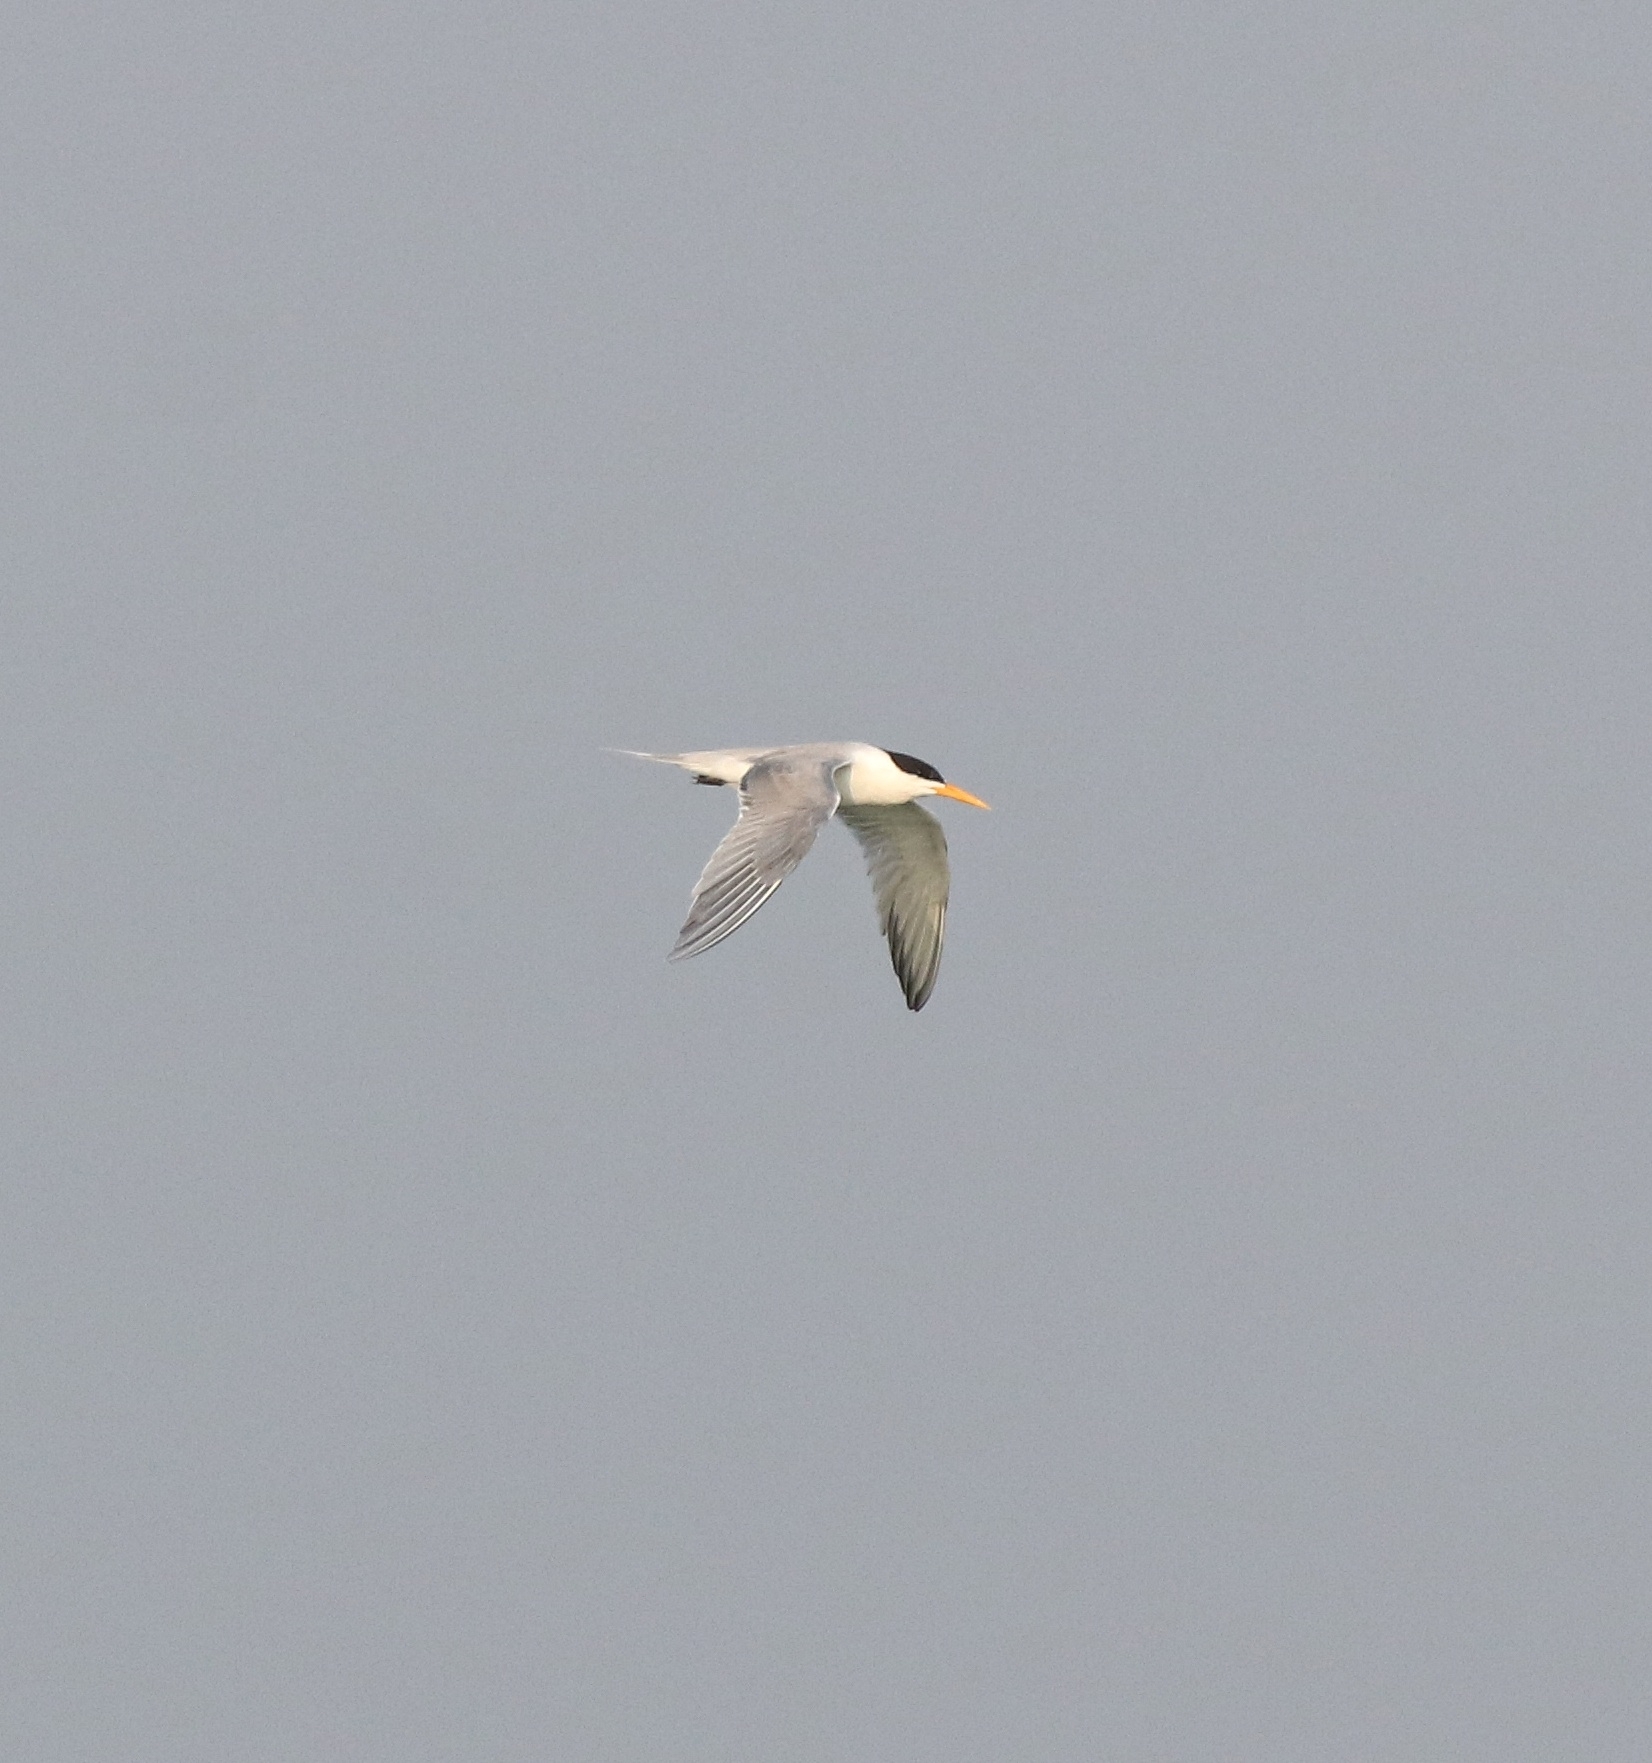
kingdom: Animalia
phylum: Chordata
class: Aves
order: Charadriiformes
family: Laridae
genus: Thalasseus
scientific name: Thalasseus bengalensis
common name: Lesser crested tern
